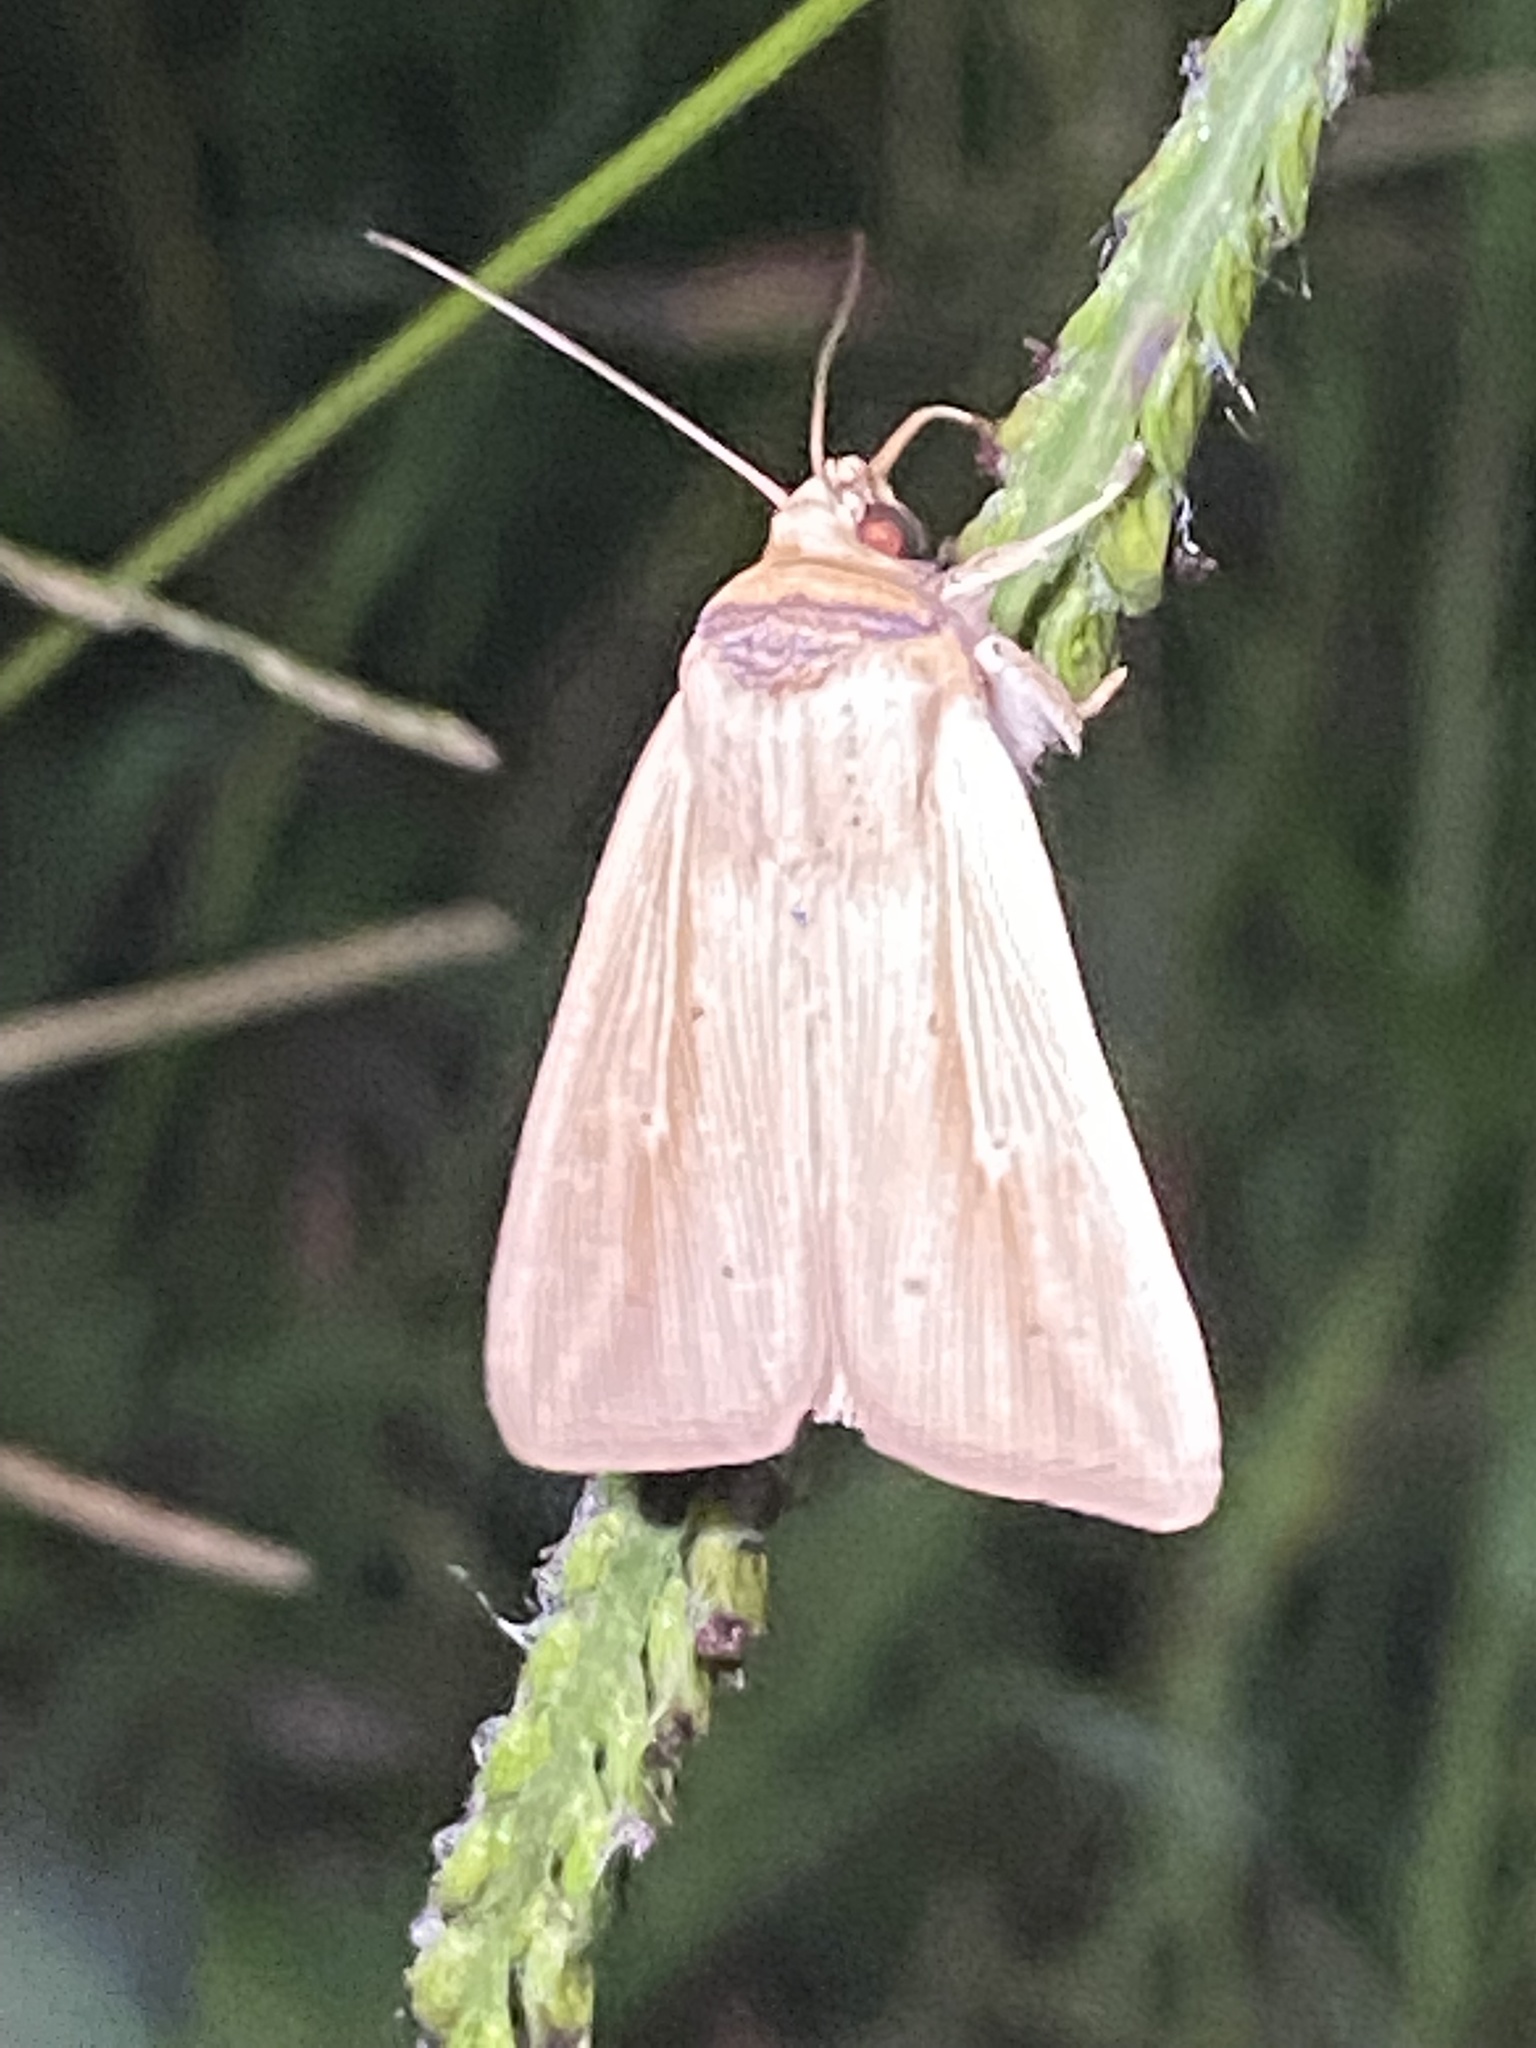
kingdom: Animalia
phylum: Arthropoda
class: Insecta
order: Lepidoptera
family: Noctuidae
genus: Leucania
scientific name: Leucania adjuta
